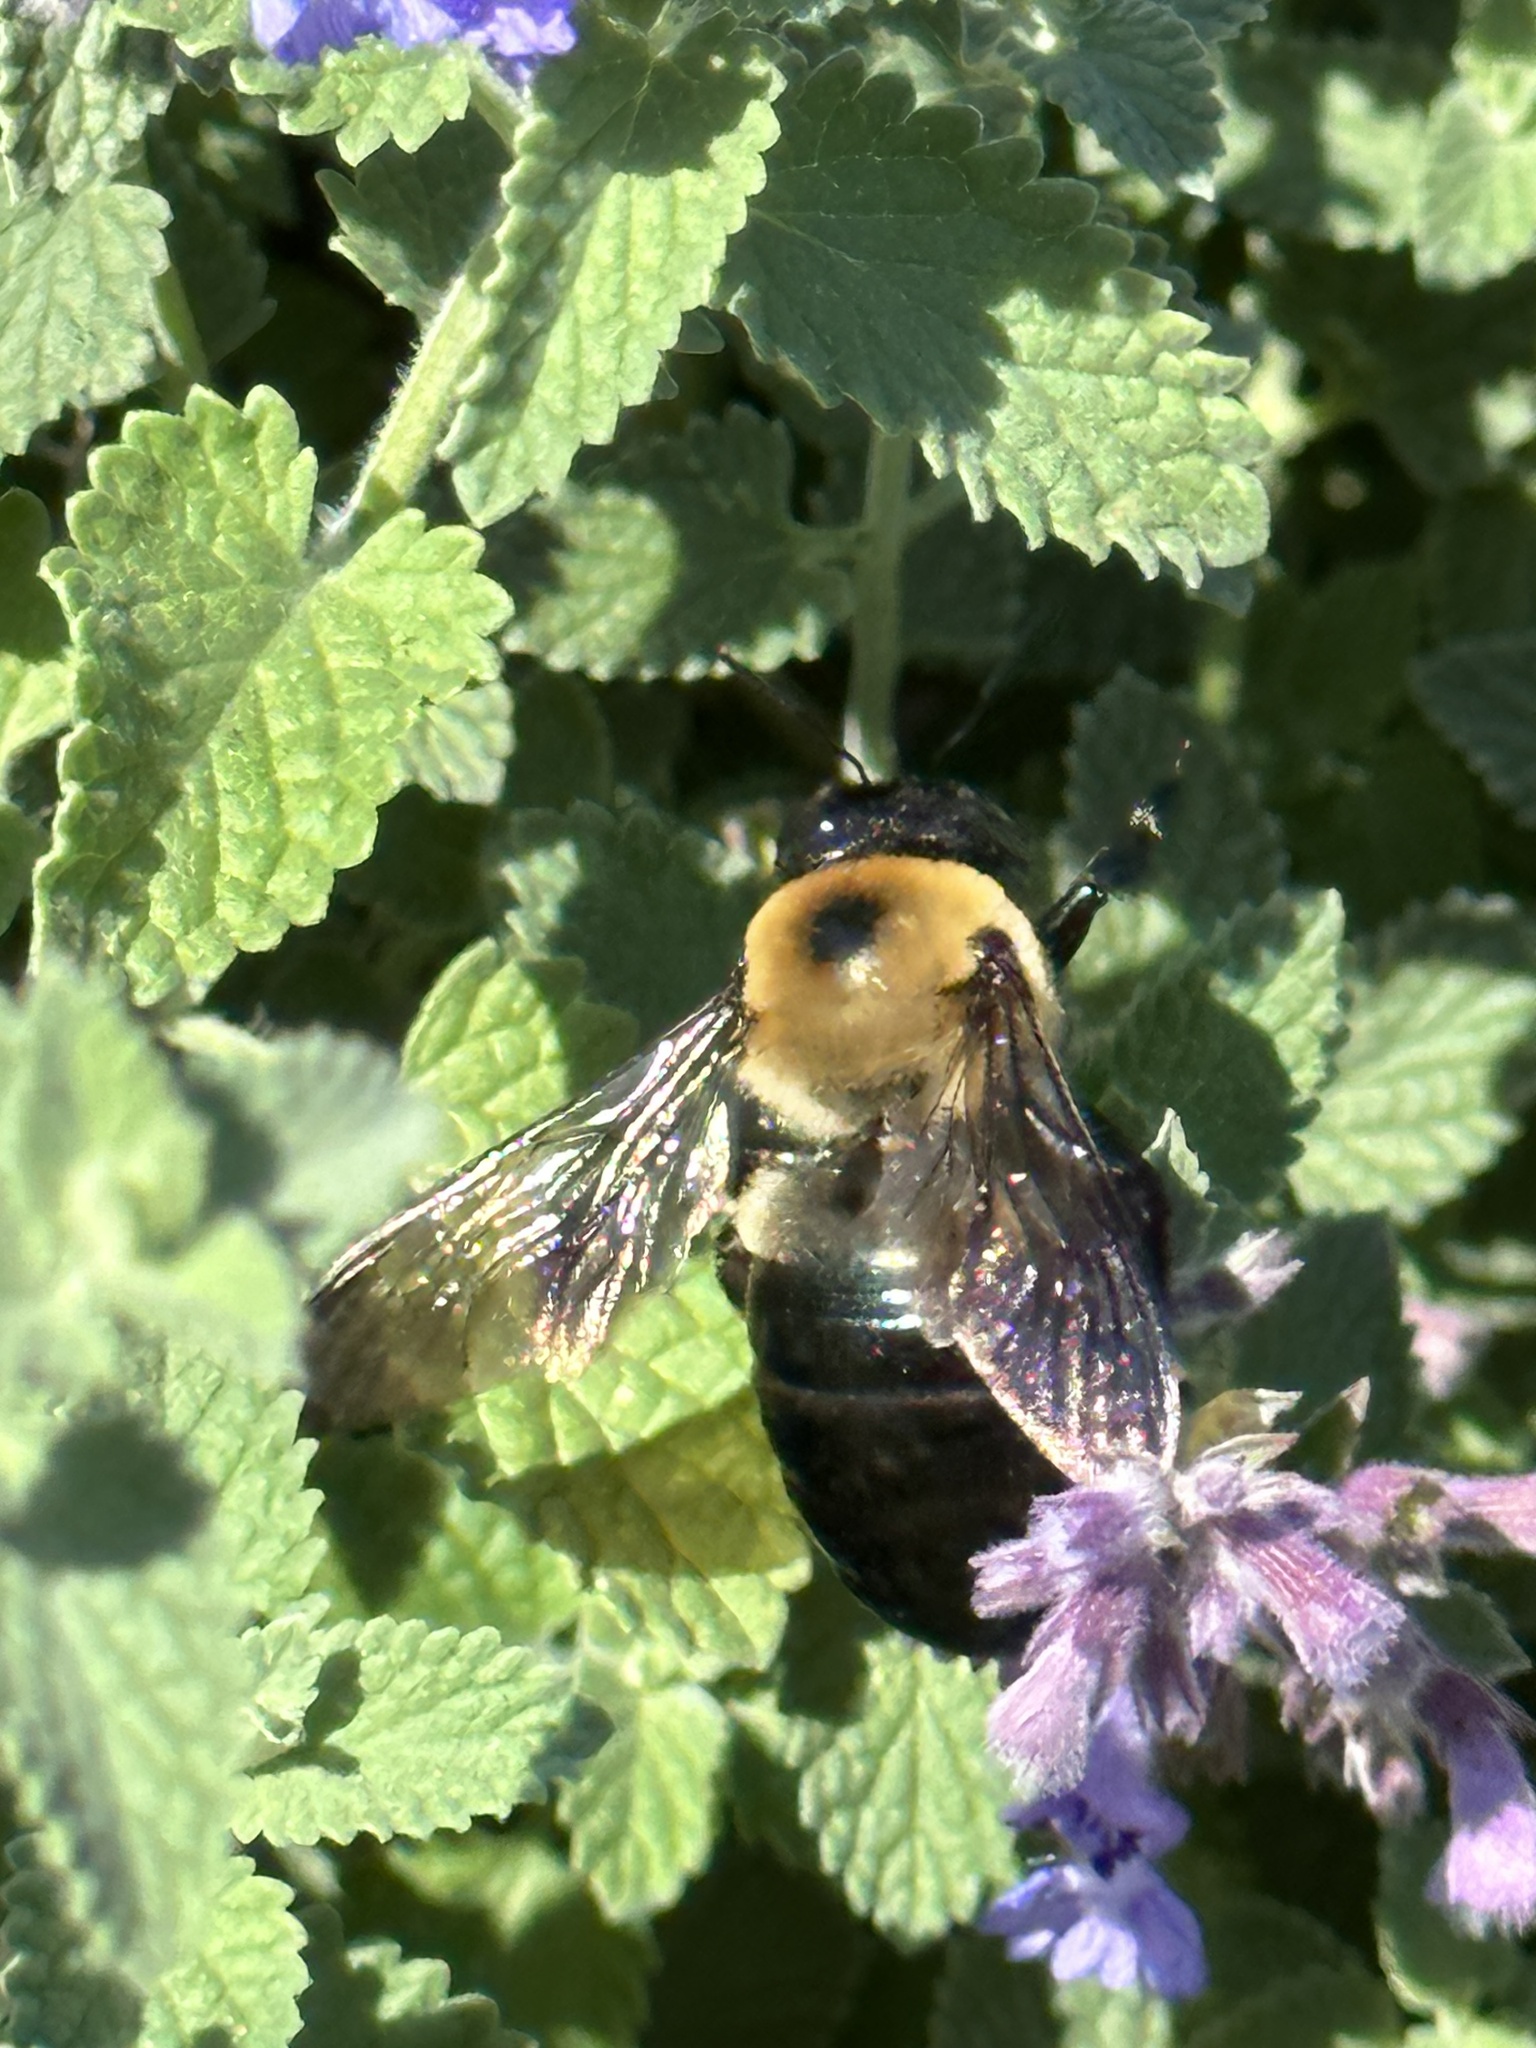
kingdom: Animalia
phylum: Arthropoda
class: Insecta
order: Hymenoptera
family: Apidae
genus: Xylocopa
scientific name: Xylocopa virginica
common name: Carpenter bee
